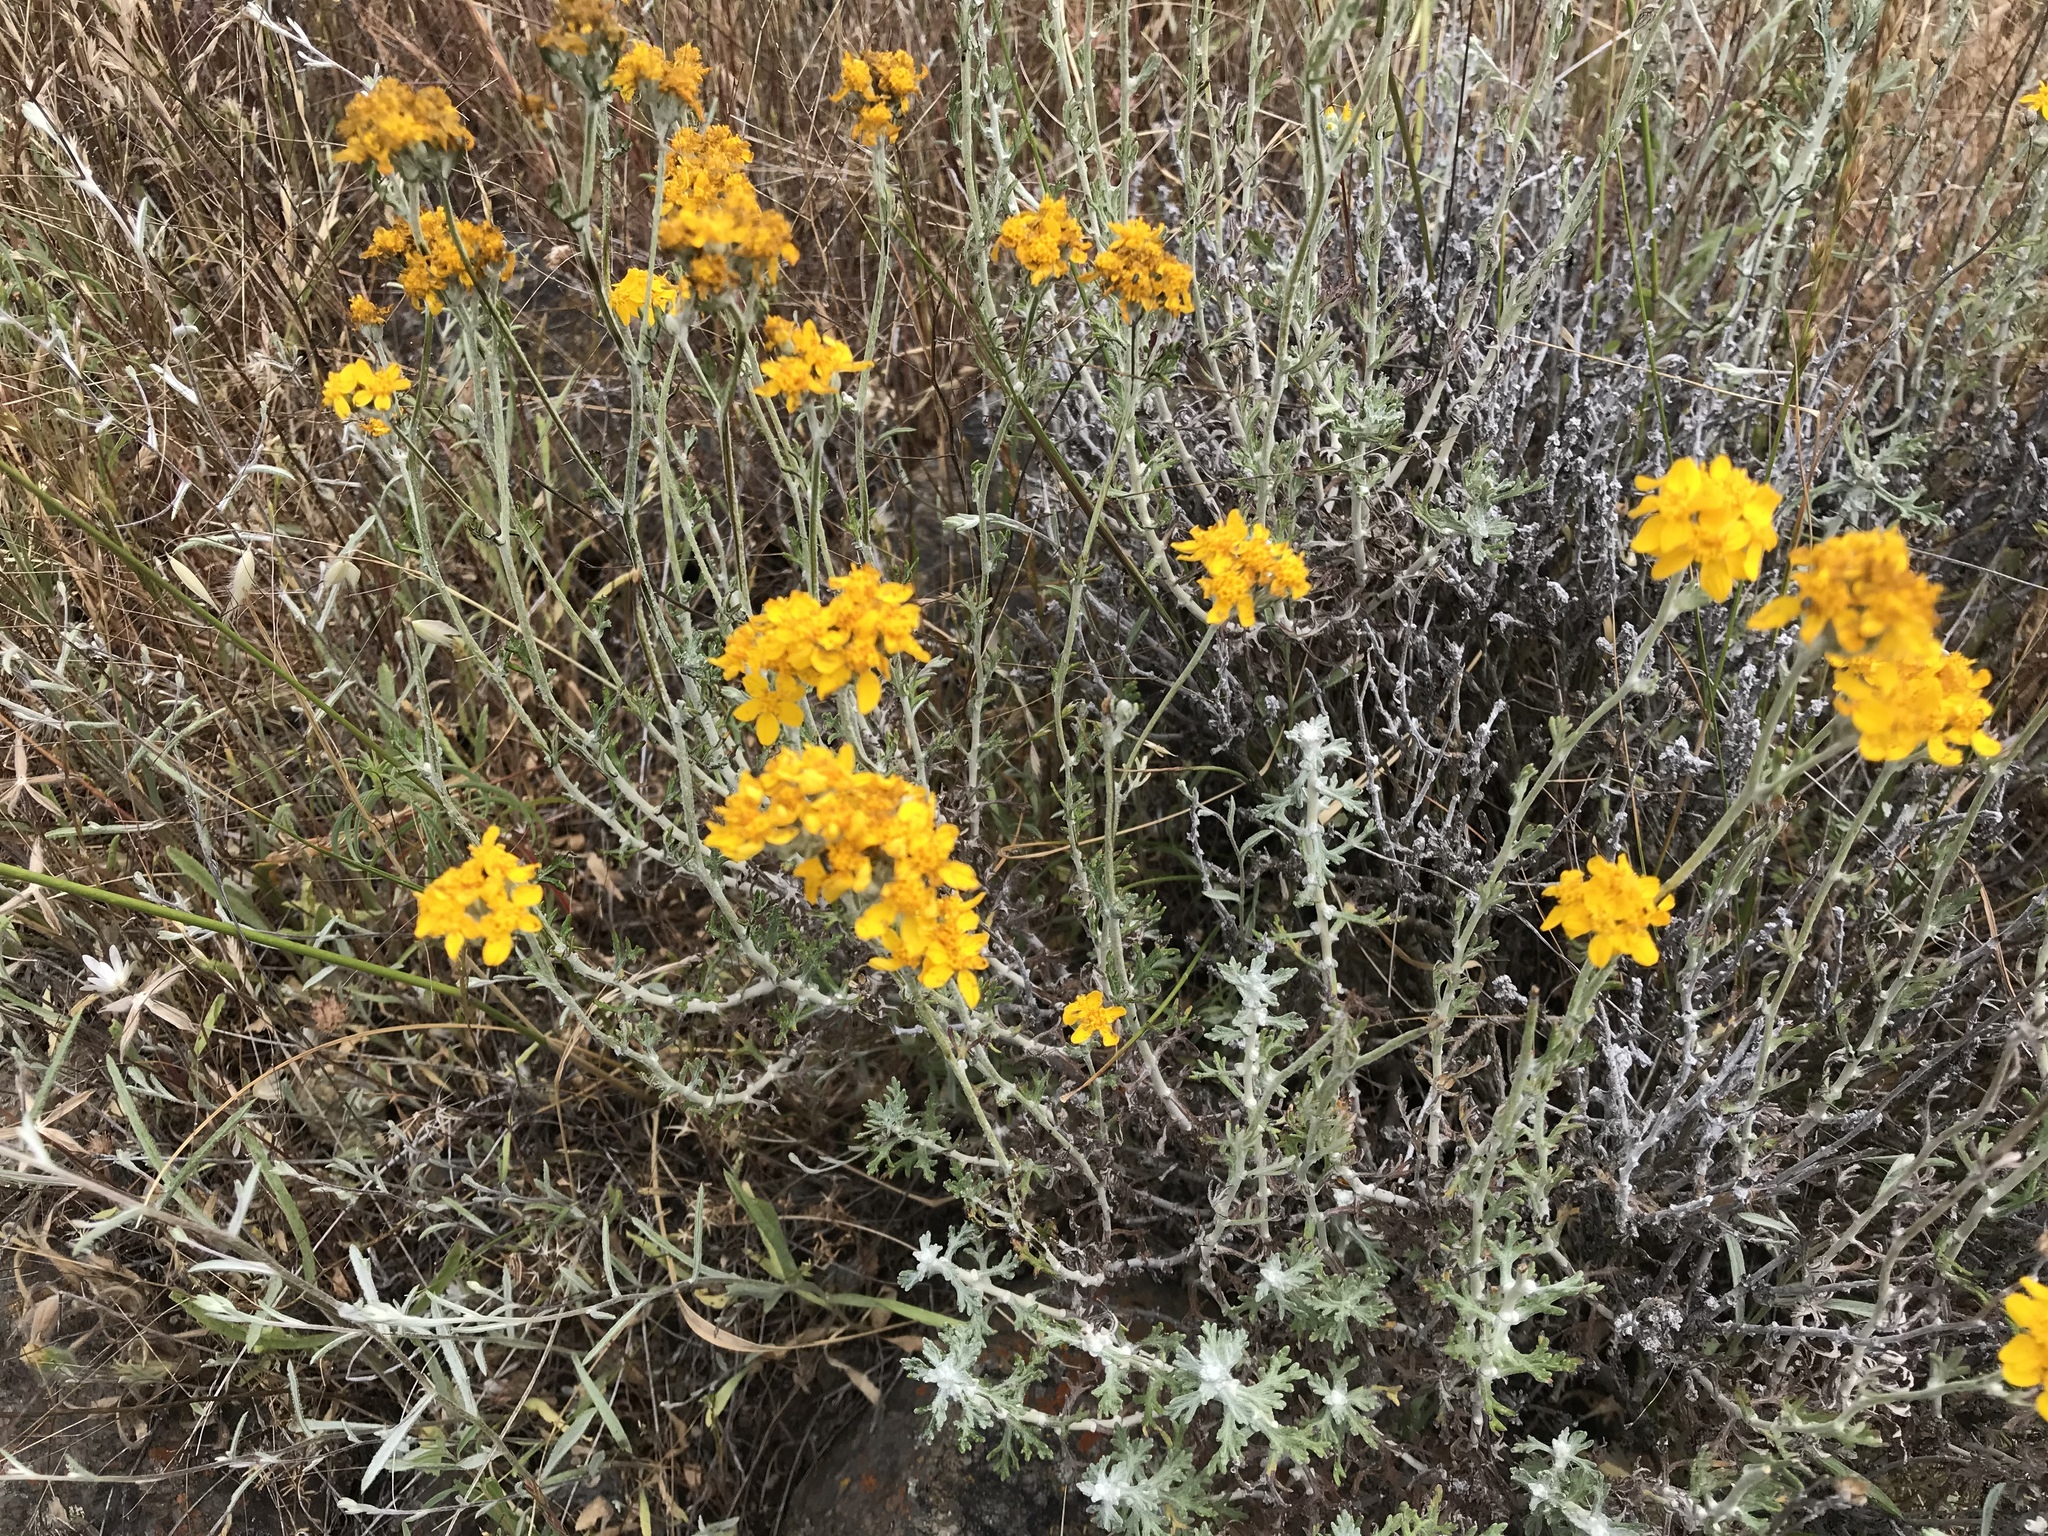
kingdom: Plantae
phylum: Tracheophyta
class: Magnoliopsida
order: Asterales
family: Asteraceae
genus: Eriophyllum
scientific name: Eriophyllum confertiflorum
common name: Golden-yarrow
